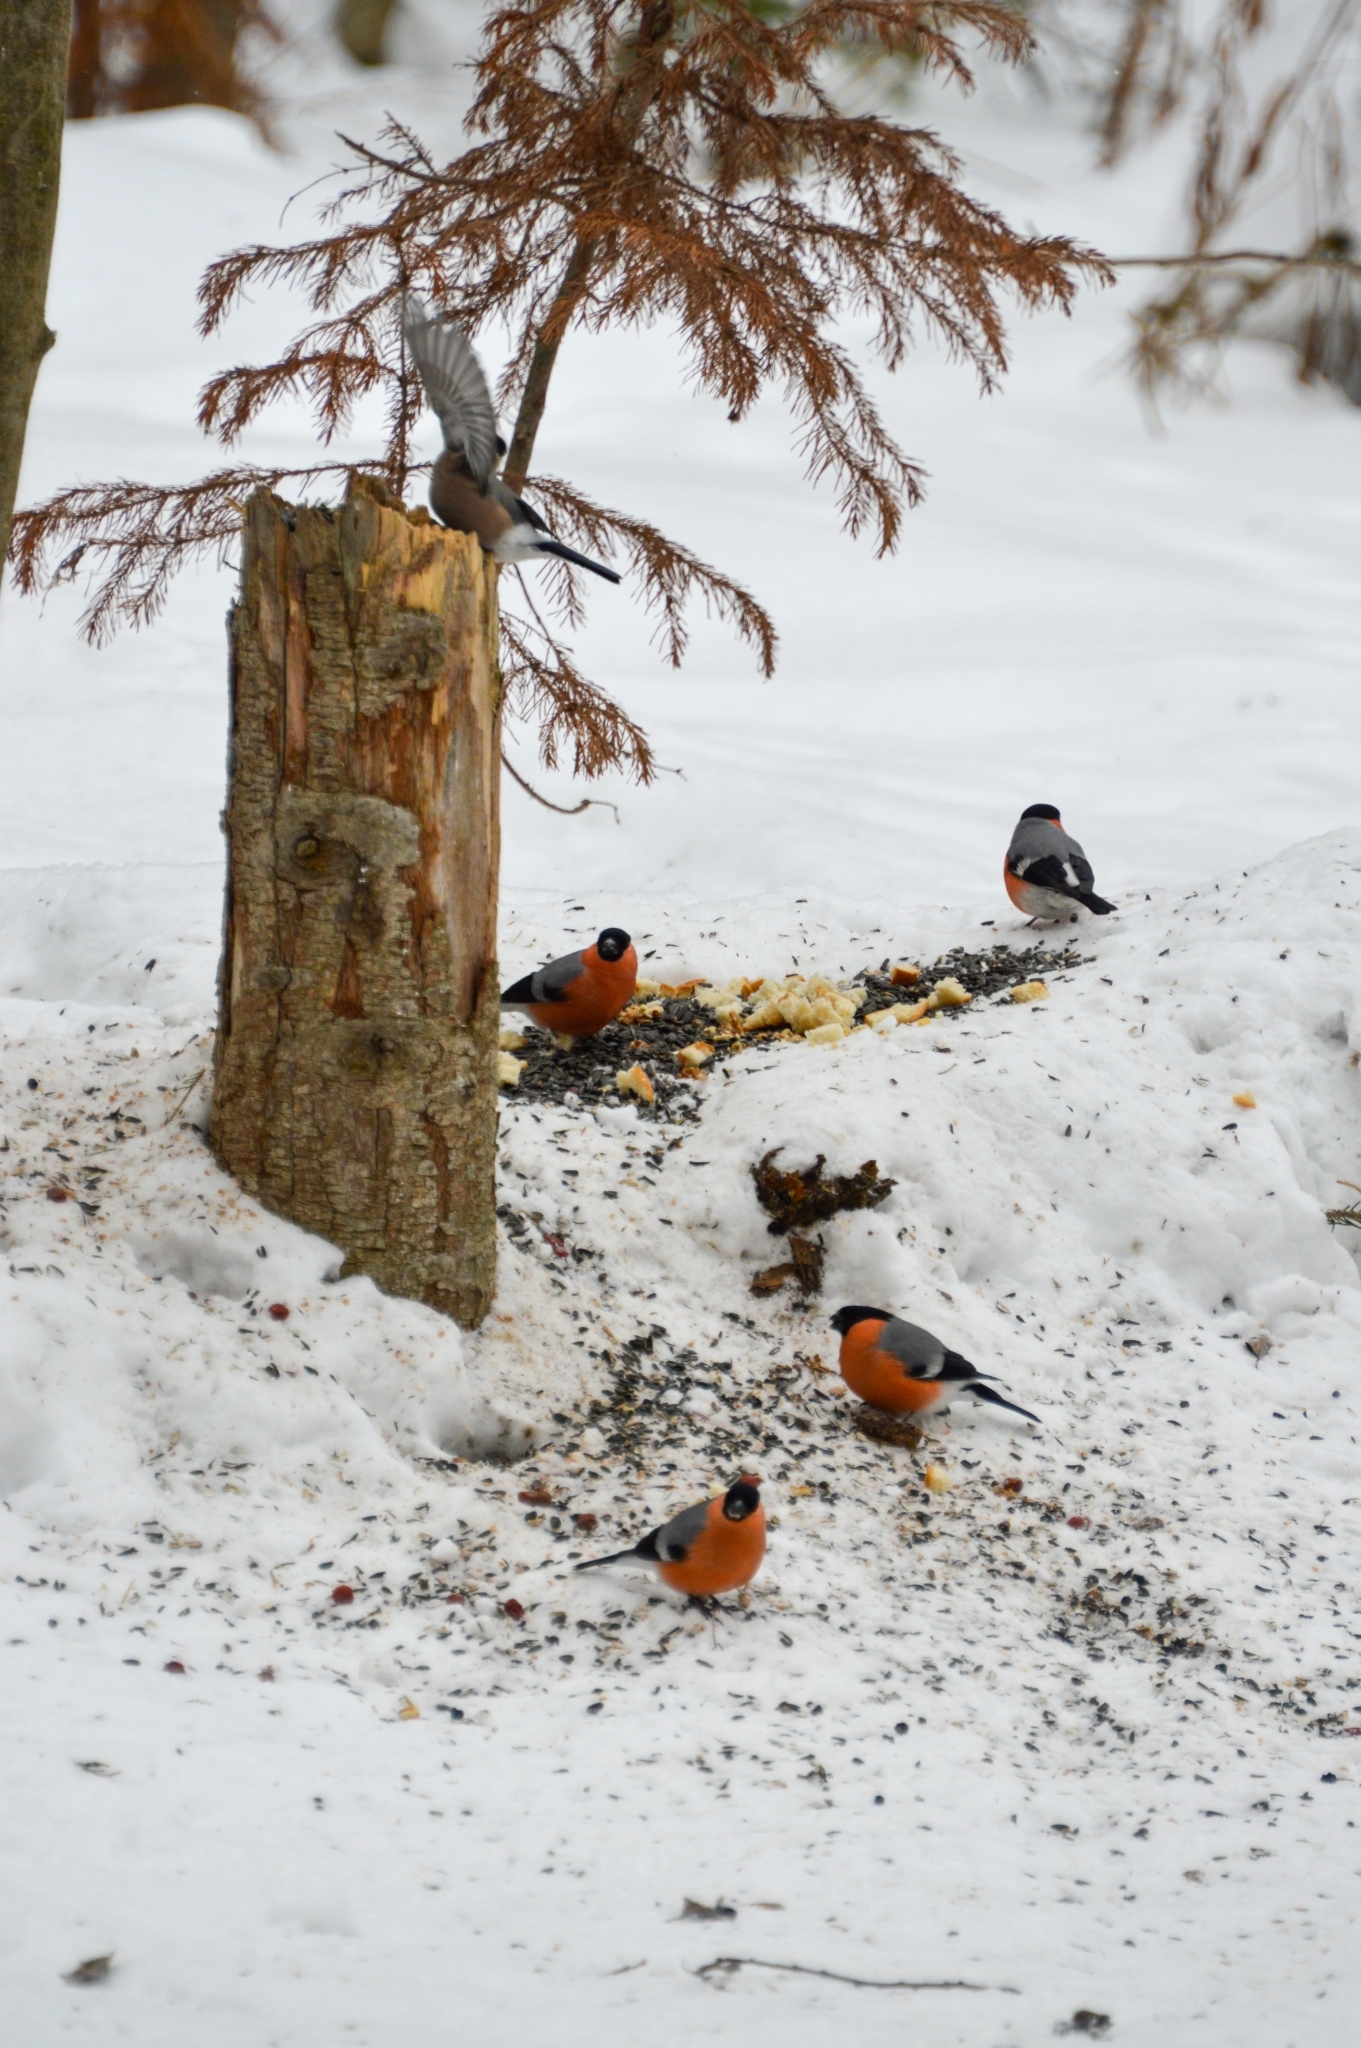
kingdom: Animalia
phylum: Chordata
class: Aves
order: Passeriformes
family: Fringillidae
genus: Pyrrhula
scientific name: Pyrrhula pyrrhula
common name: Eurasian bullfinch
